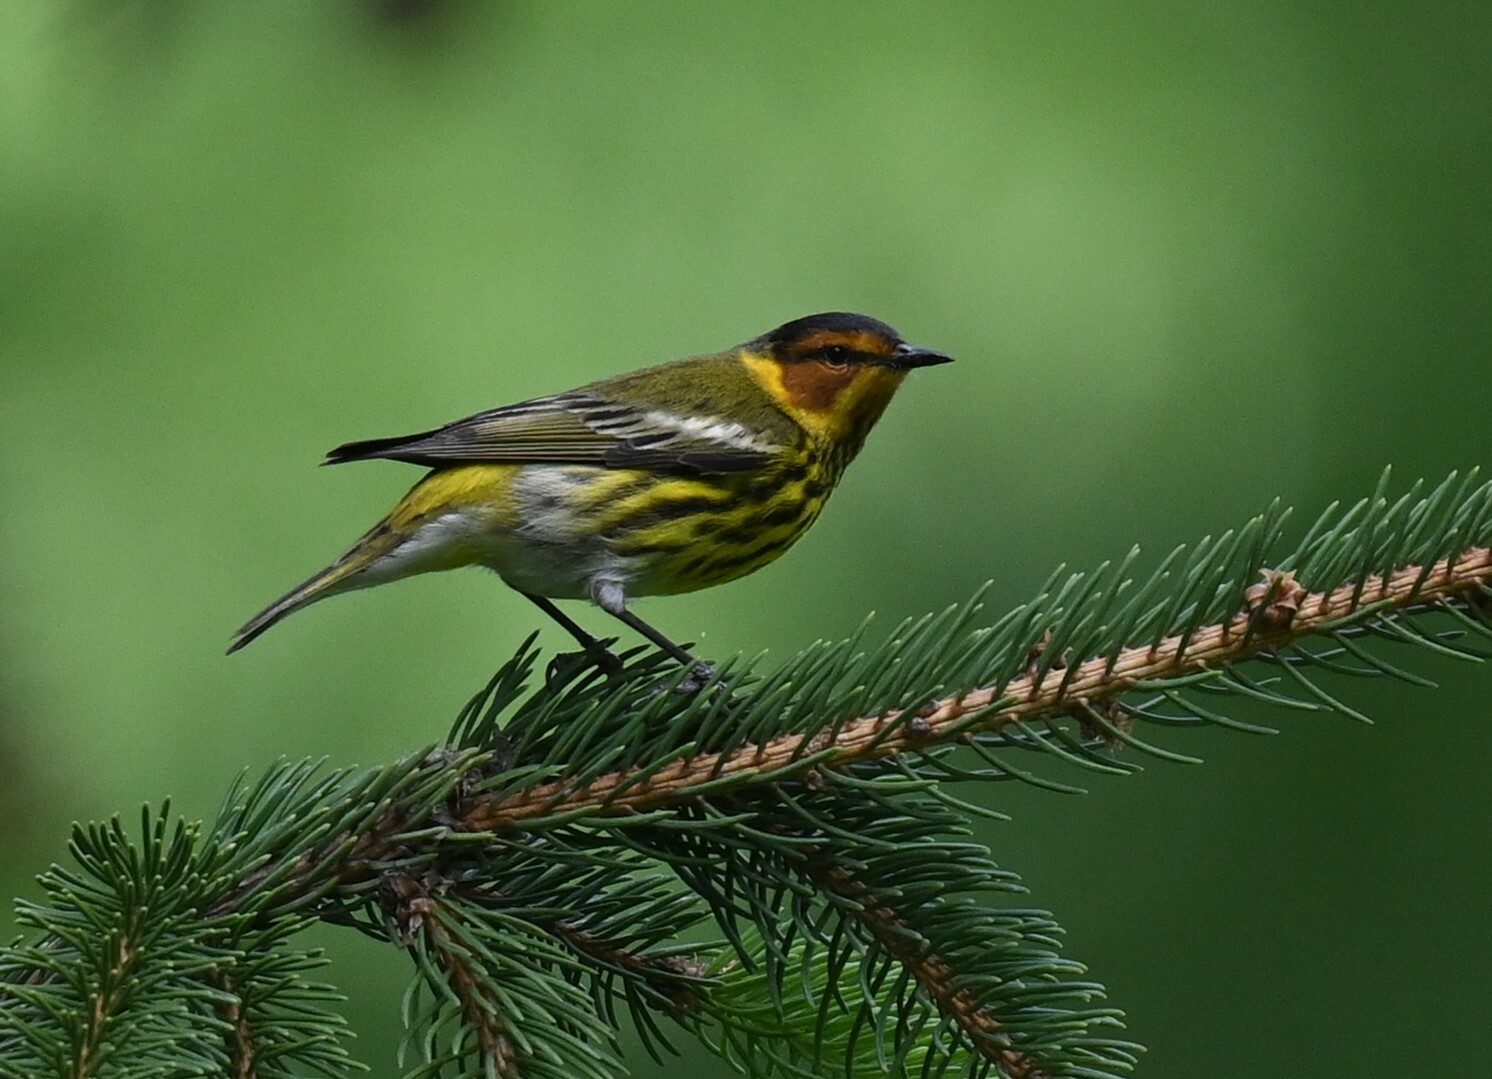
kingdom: Animalia
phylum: Chordata
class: Aves
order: Passeriformes
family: Parulidae
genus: Setophaga
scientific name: Setophaga tigrina
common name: Cape may warbler
